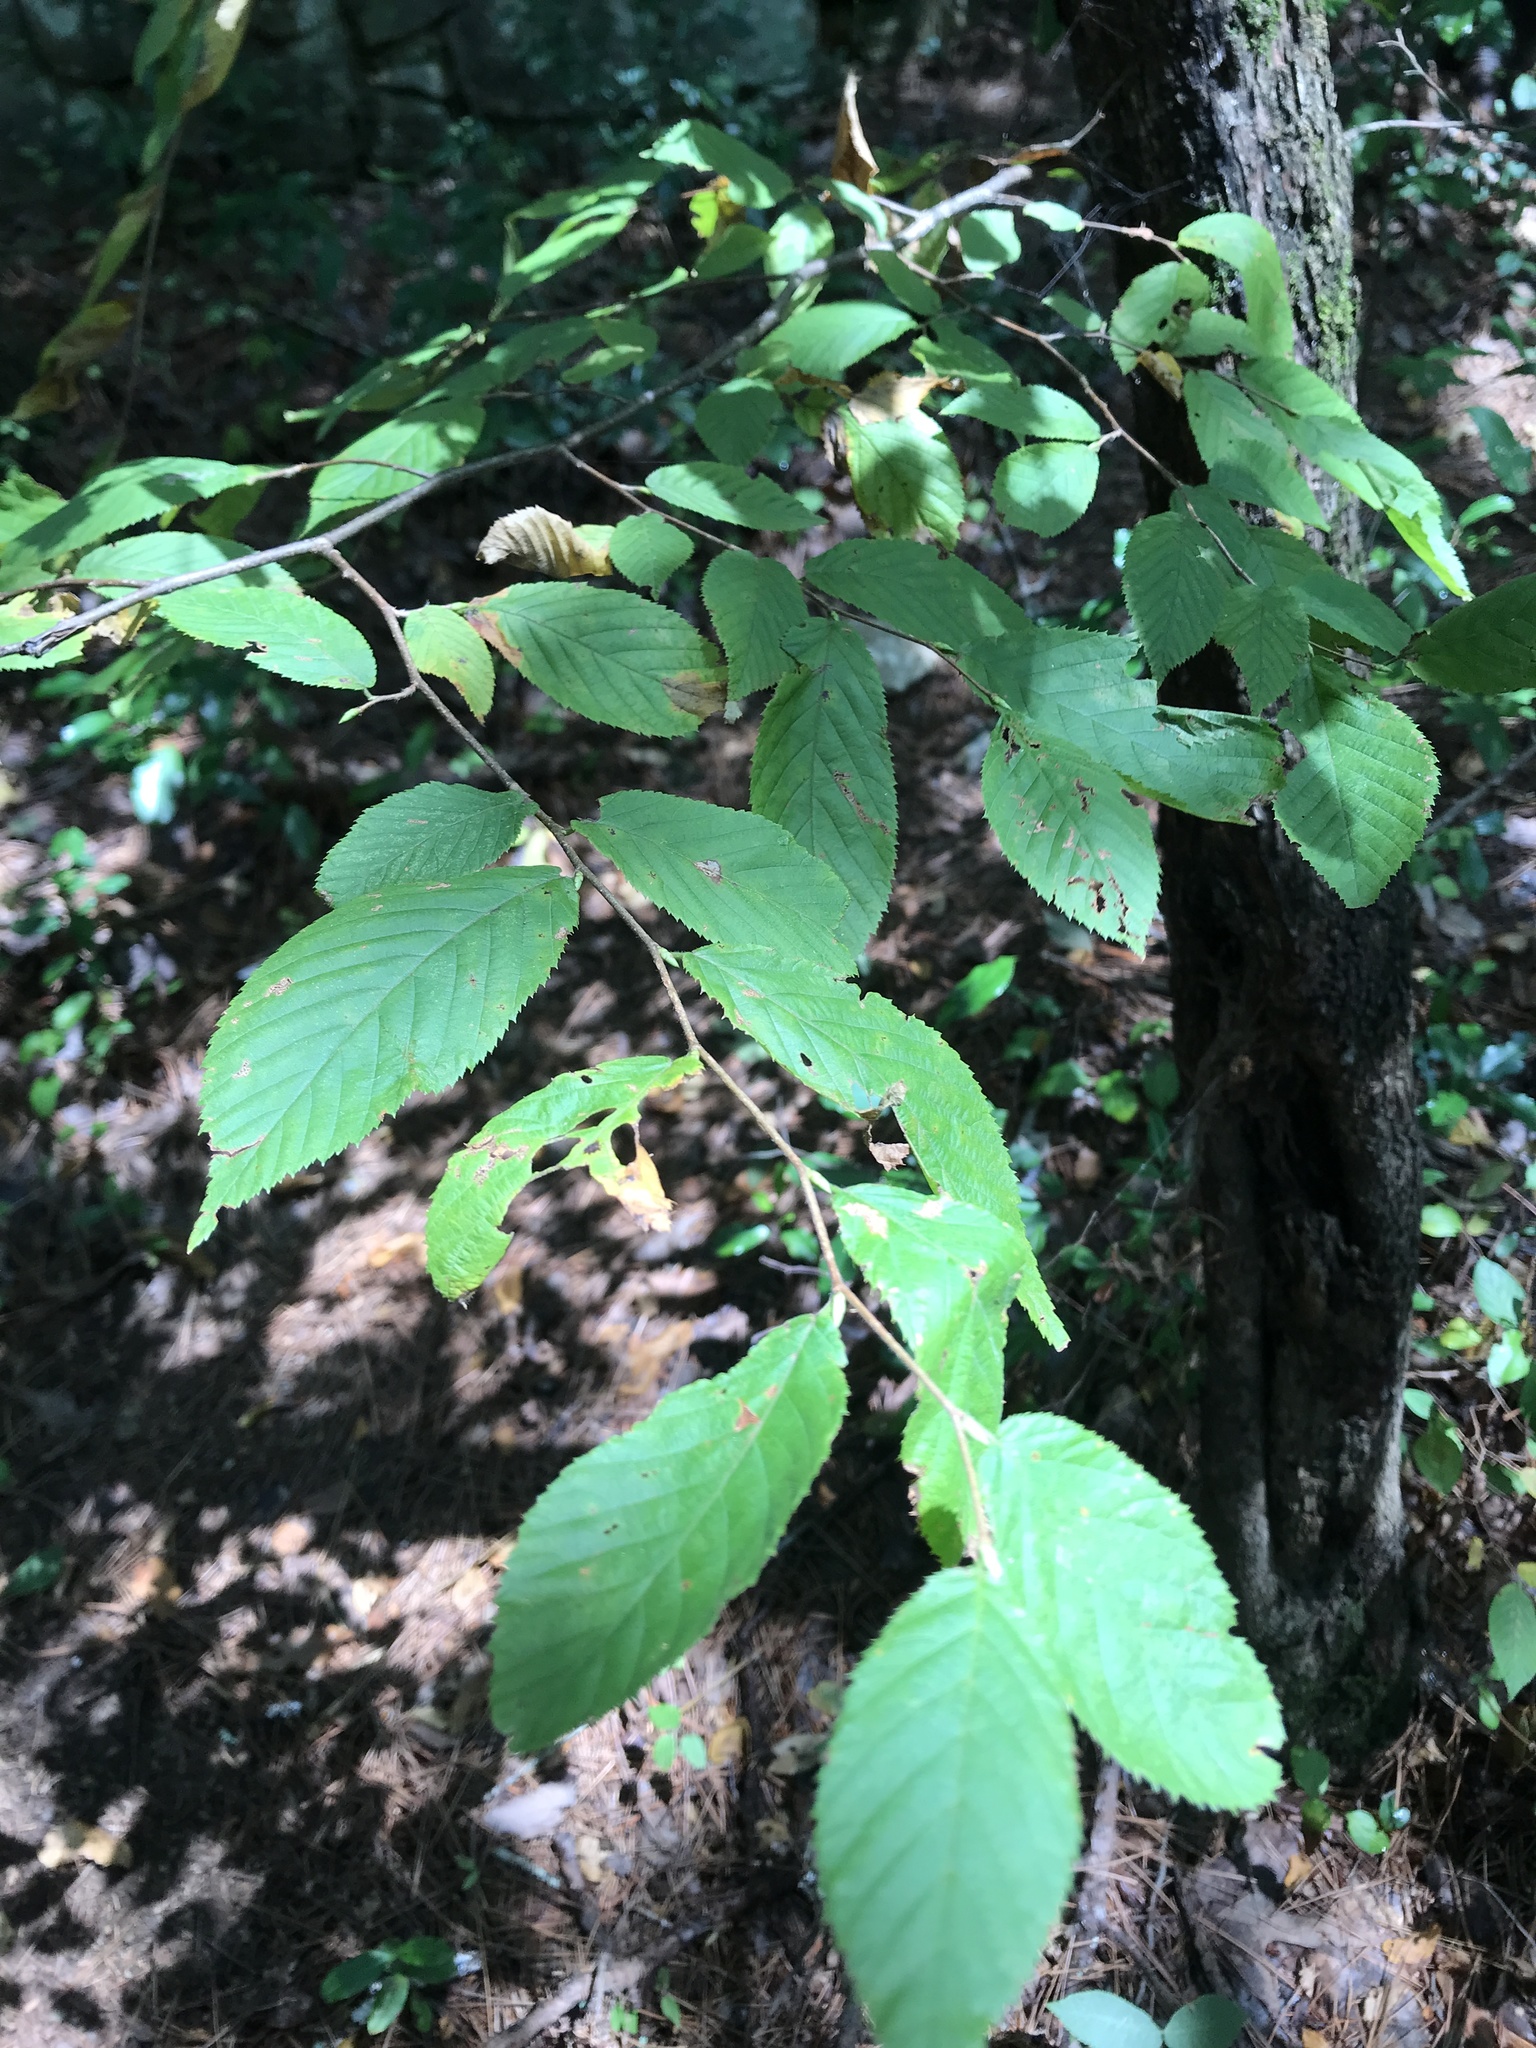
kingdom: Plantae
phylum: Tracheophyta
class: Magnoliopsida
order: Fagales
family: Betulaceae
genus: Ostrya
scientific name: Ostrya virginiana
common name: Ironwood
